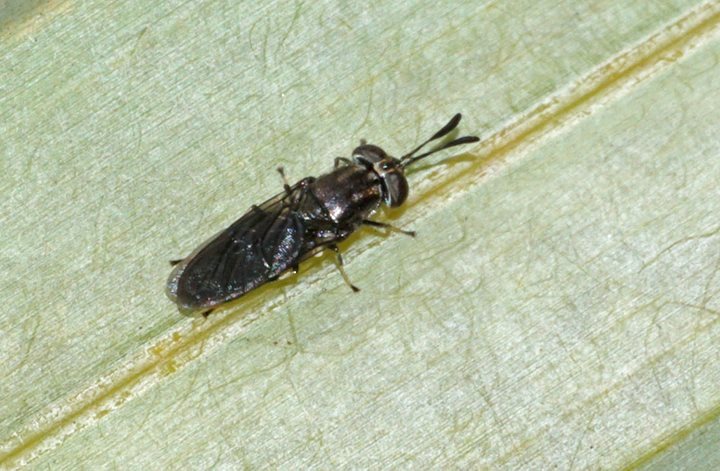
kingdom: Animalia
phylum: Arthropoda
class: Insecta
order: Diptera
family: Stratiomyidae
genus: Hermetia
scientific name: Hermetia sexmaculata
